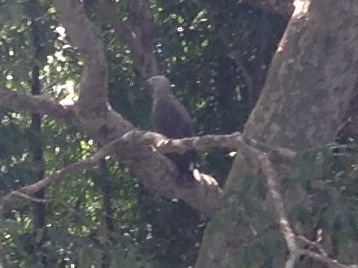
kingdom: Animalia
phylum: Chordata
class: Aves
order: Accipitriformes
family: Accipitridae
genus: Icthyophaga
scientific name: Icthyophaga ichthyaetus
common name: Grey-headed fish eagle
